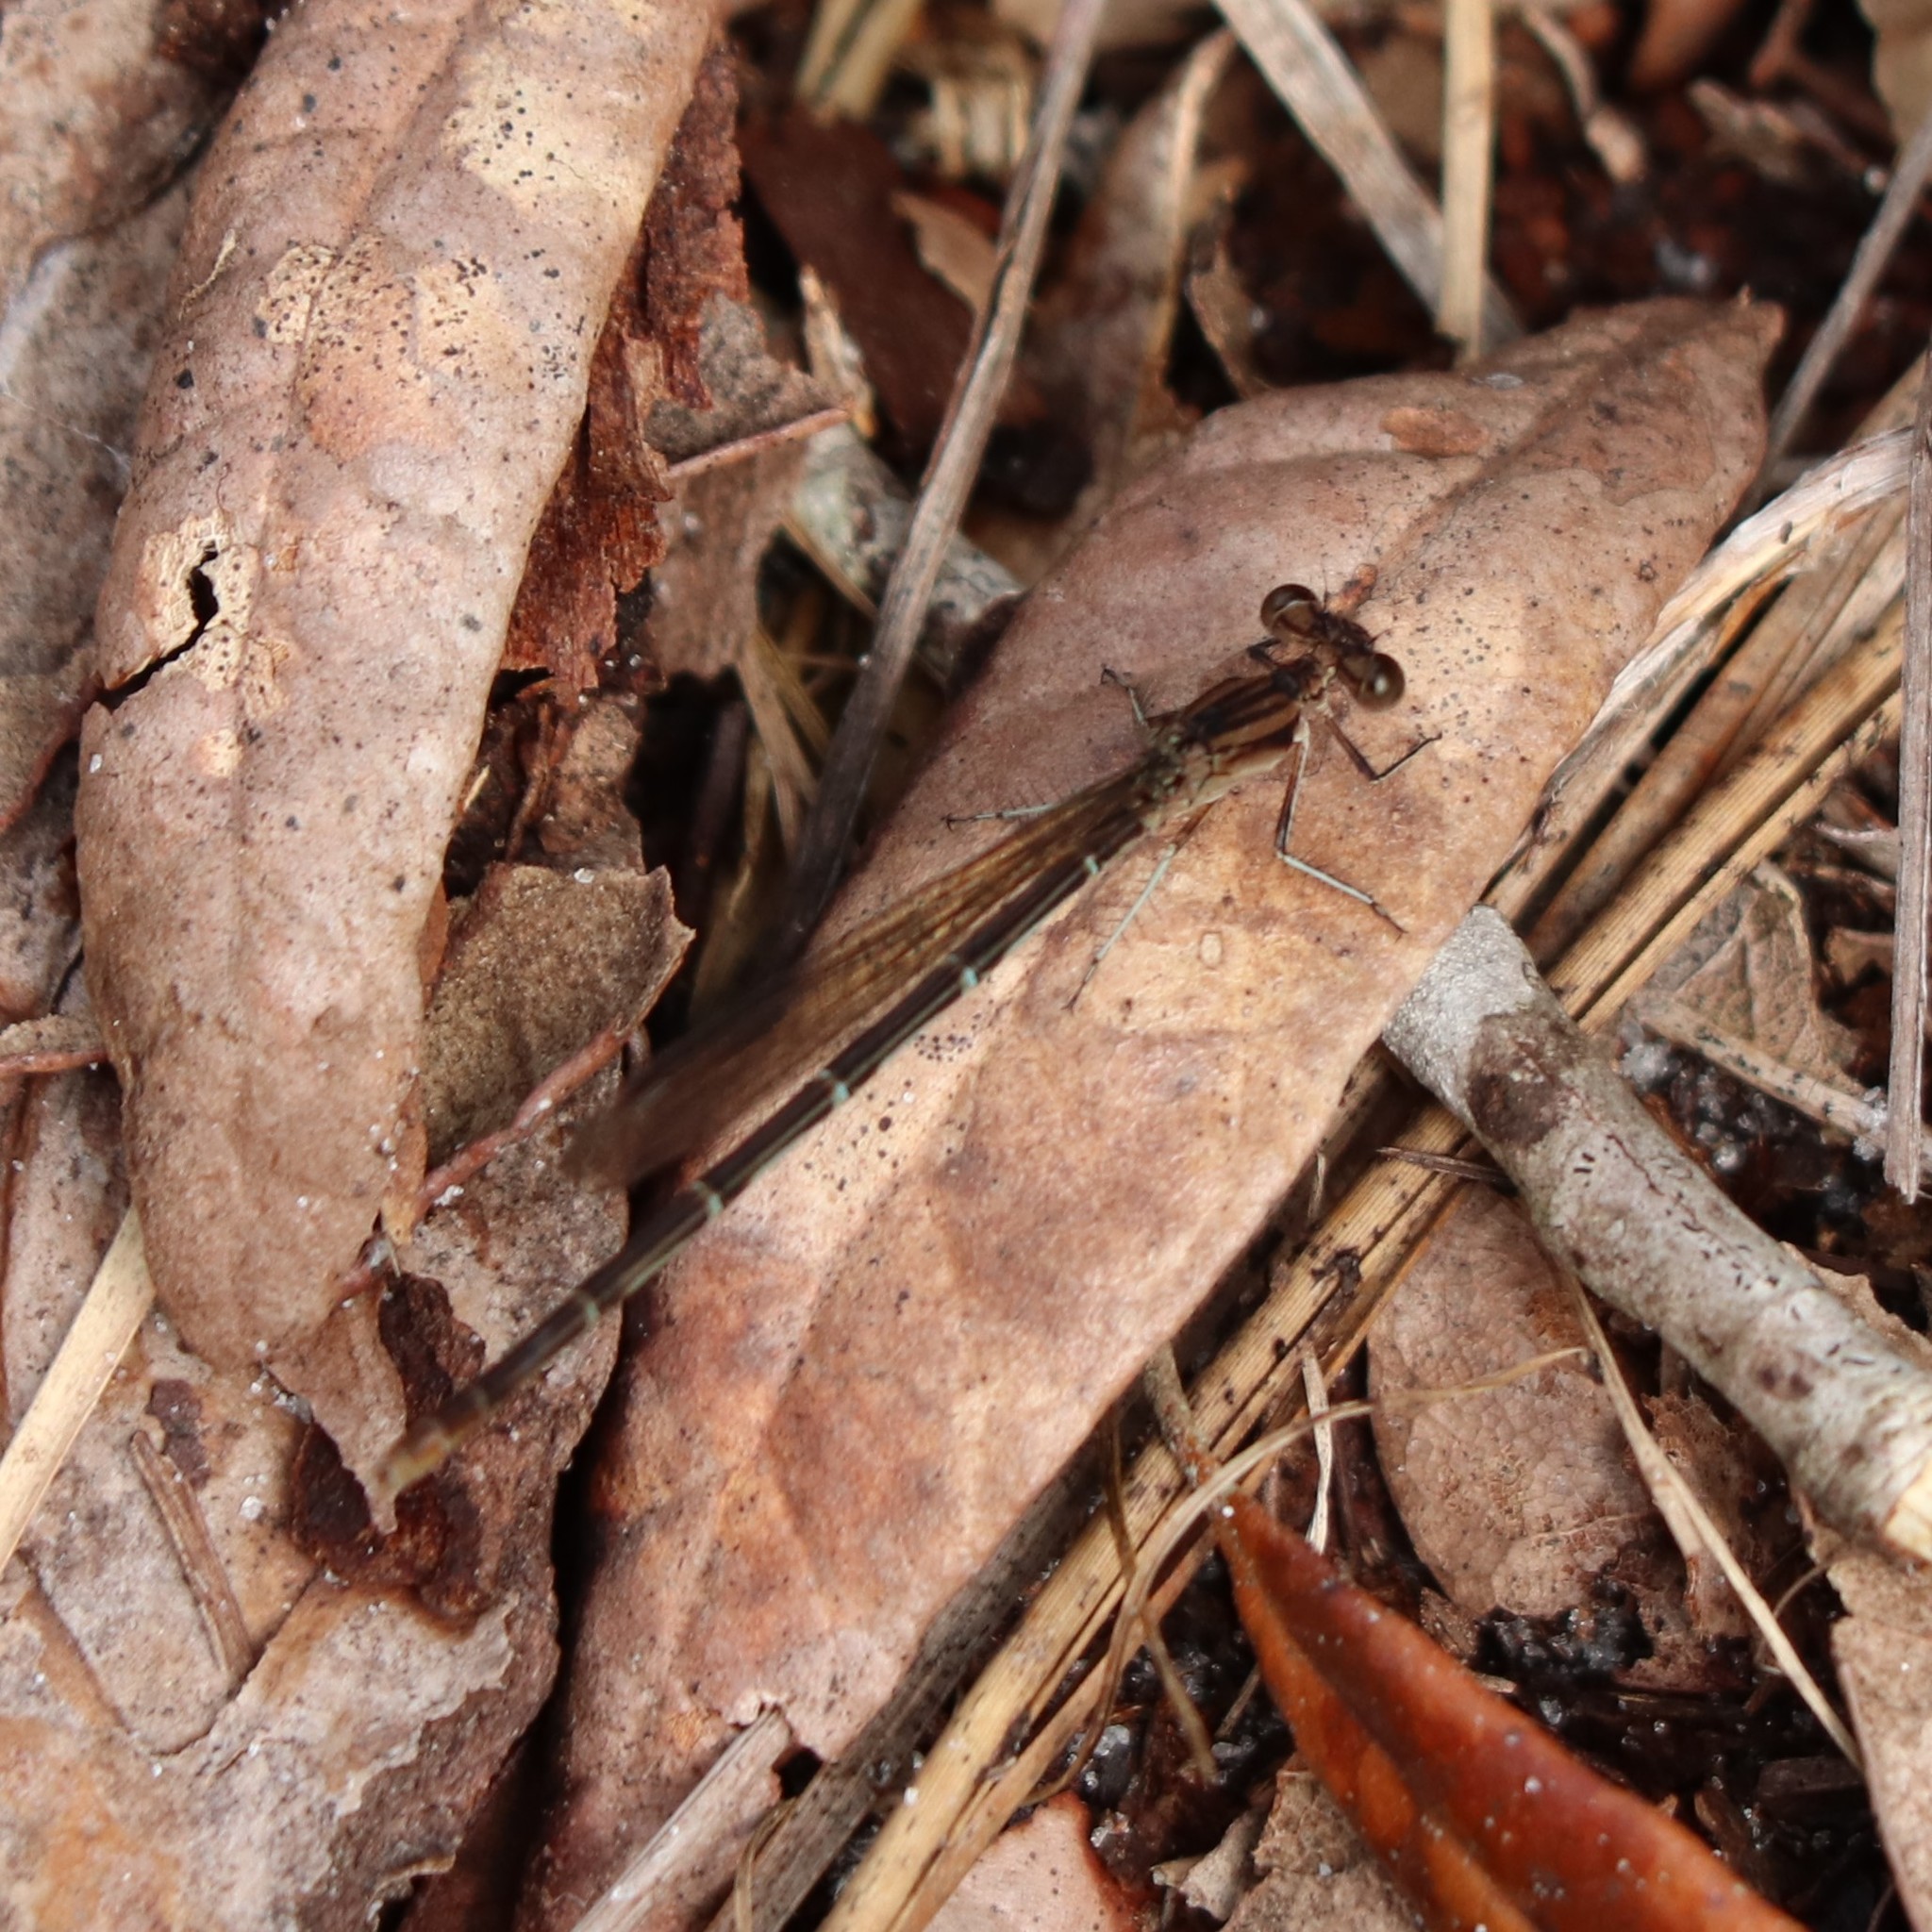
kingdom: Animalia
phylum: Arthropoda
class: Insecta
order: Odonata
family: Coenagrionidae
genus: Argia
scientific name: Argia sedula
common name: Blue-ringed dancer
